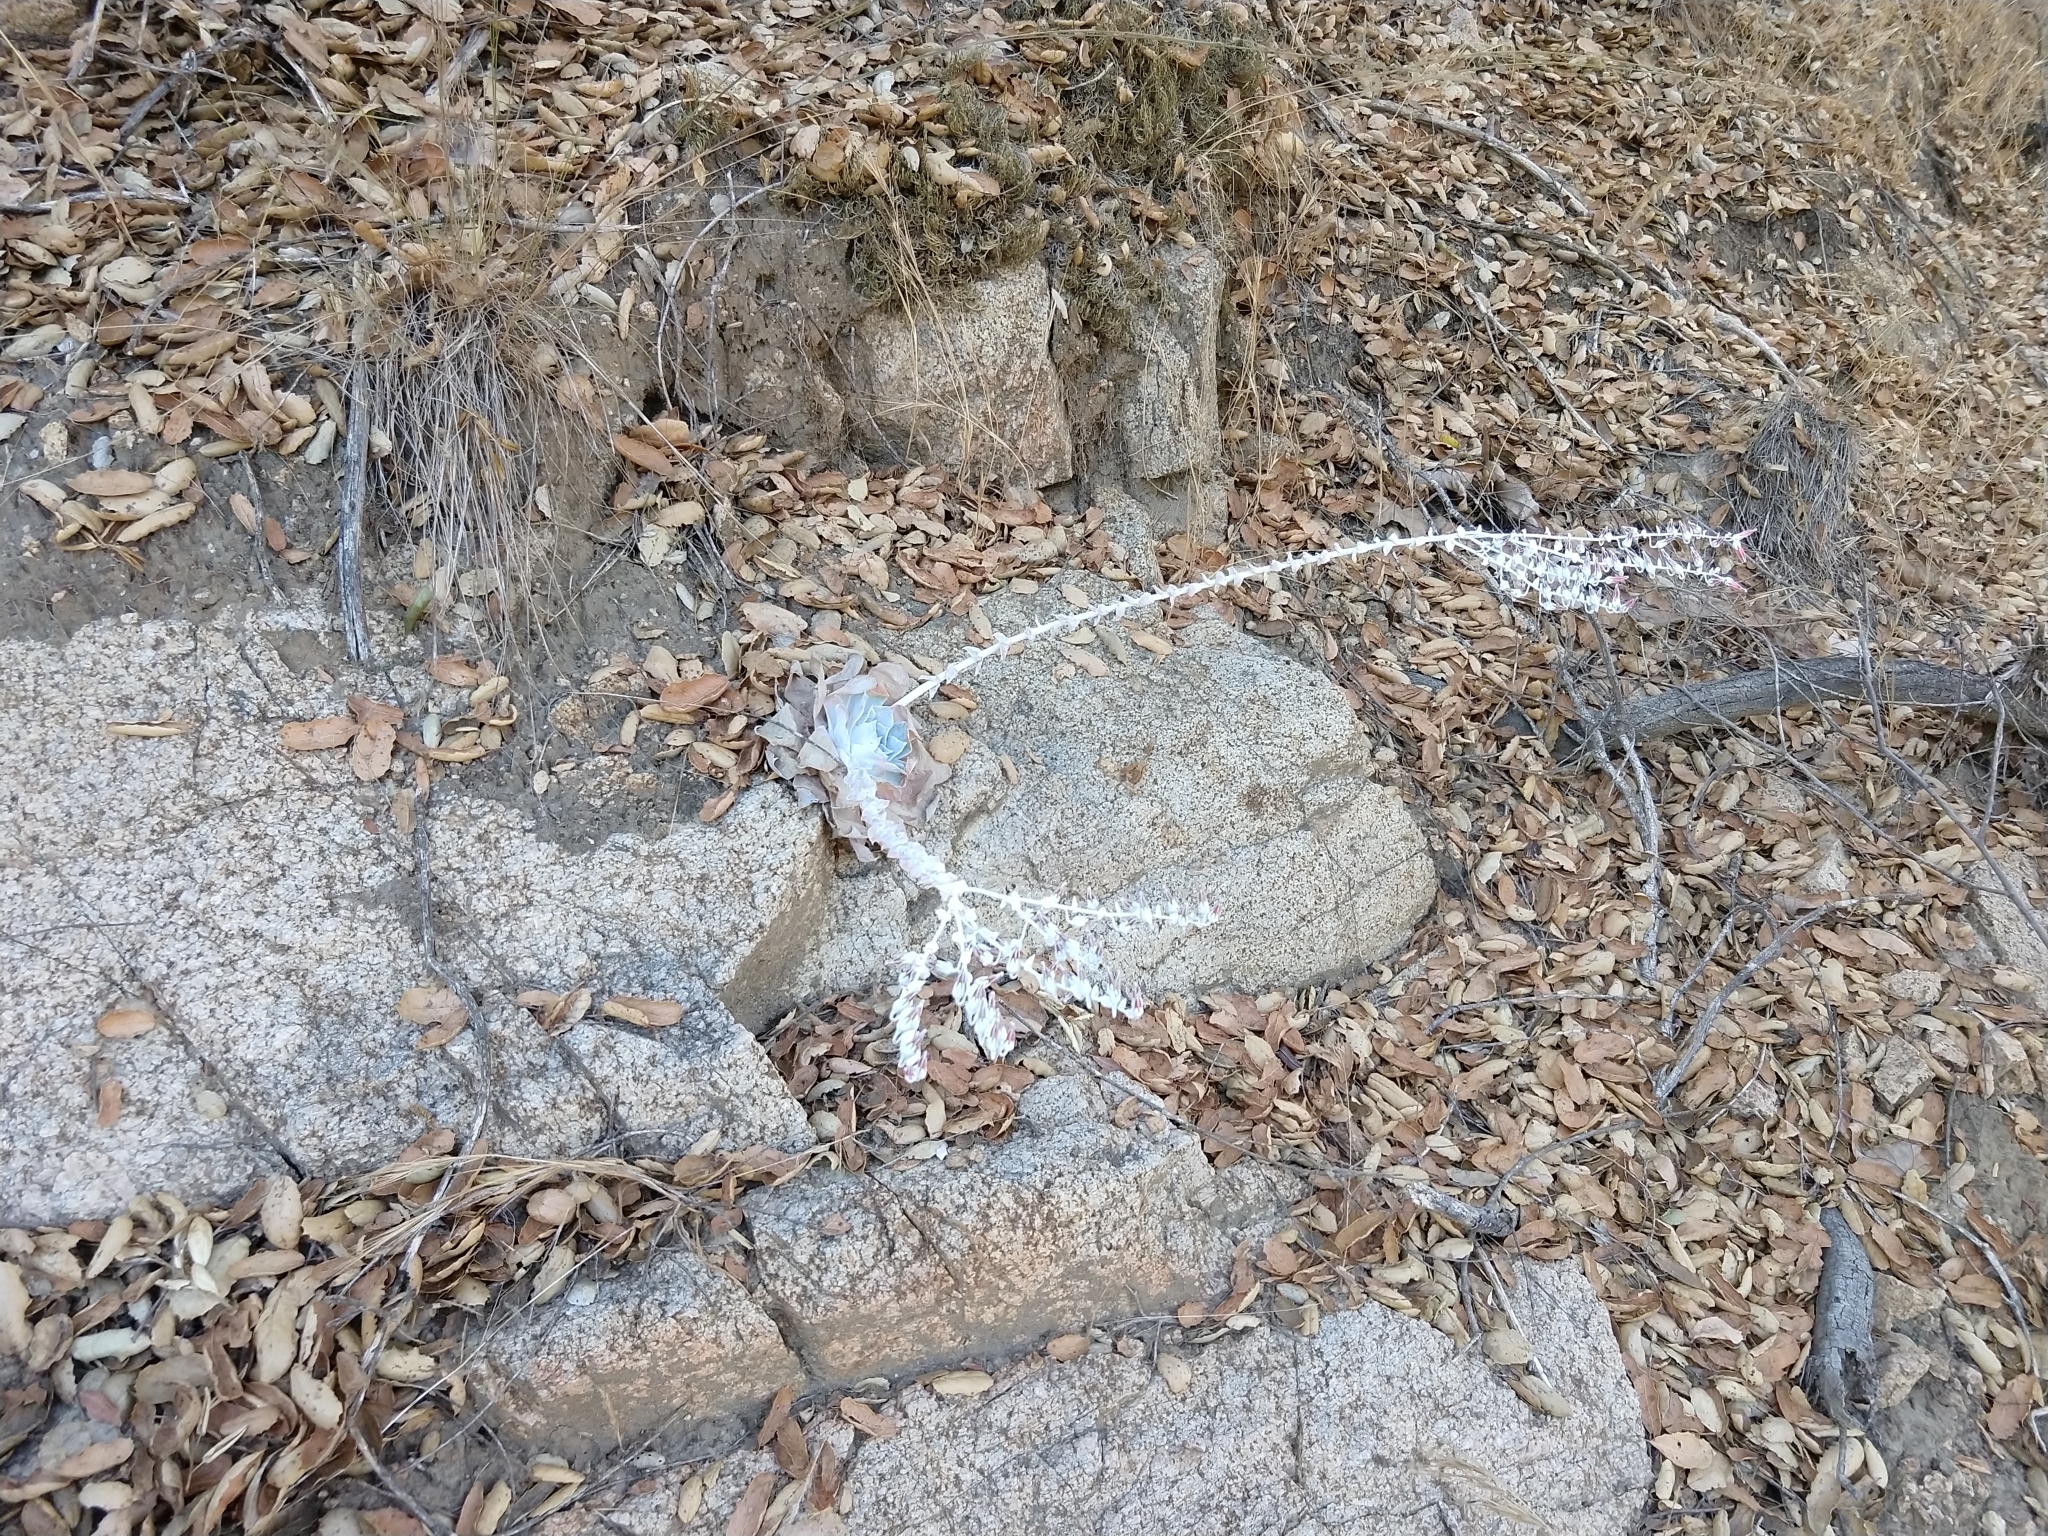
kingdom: Plantae
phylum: Tracheophyta
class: Magnoliopsida
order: Saxifragales
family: Crassulaceae
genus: Dudleya
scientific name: Dudleya pulverulenta
